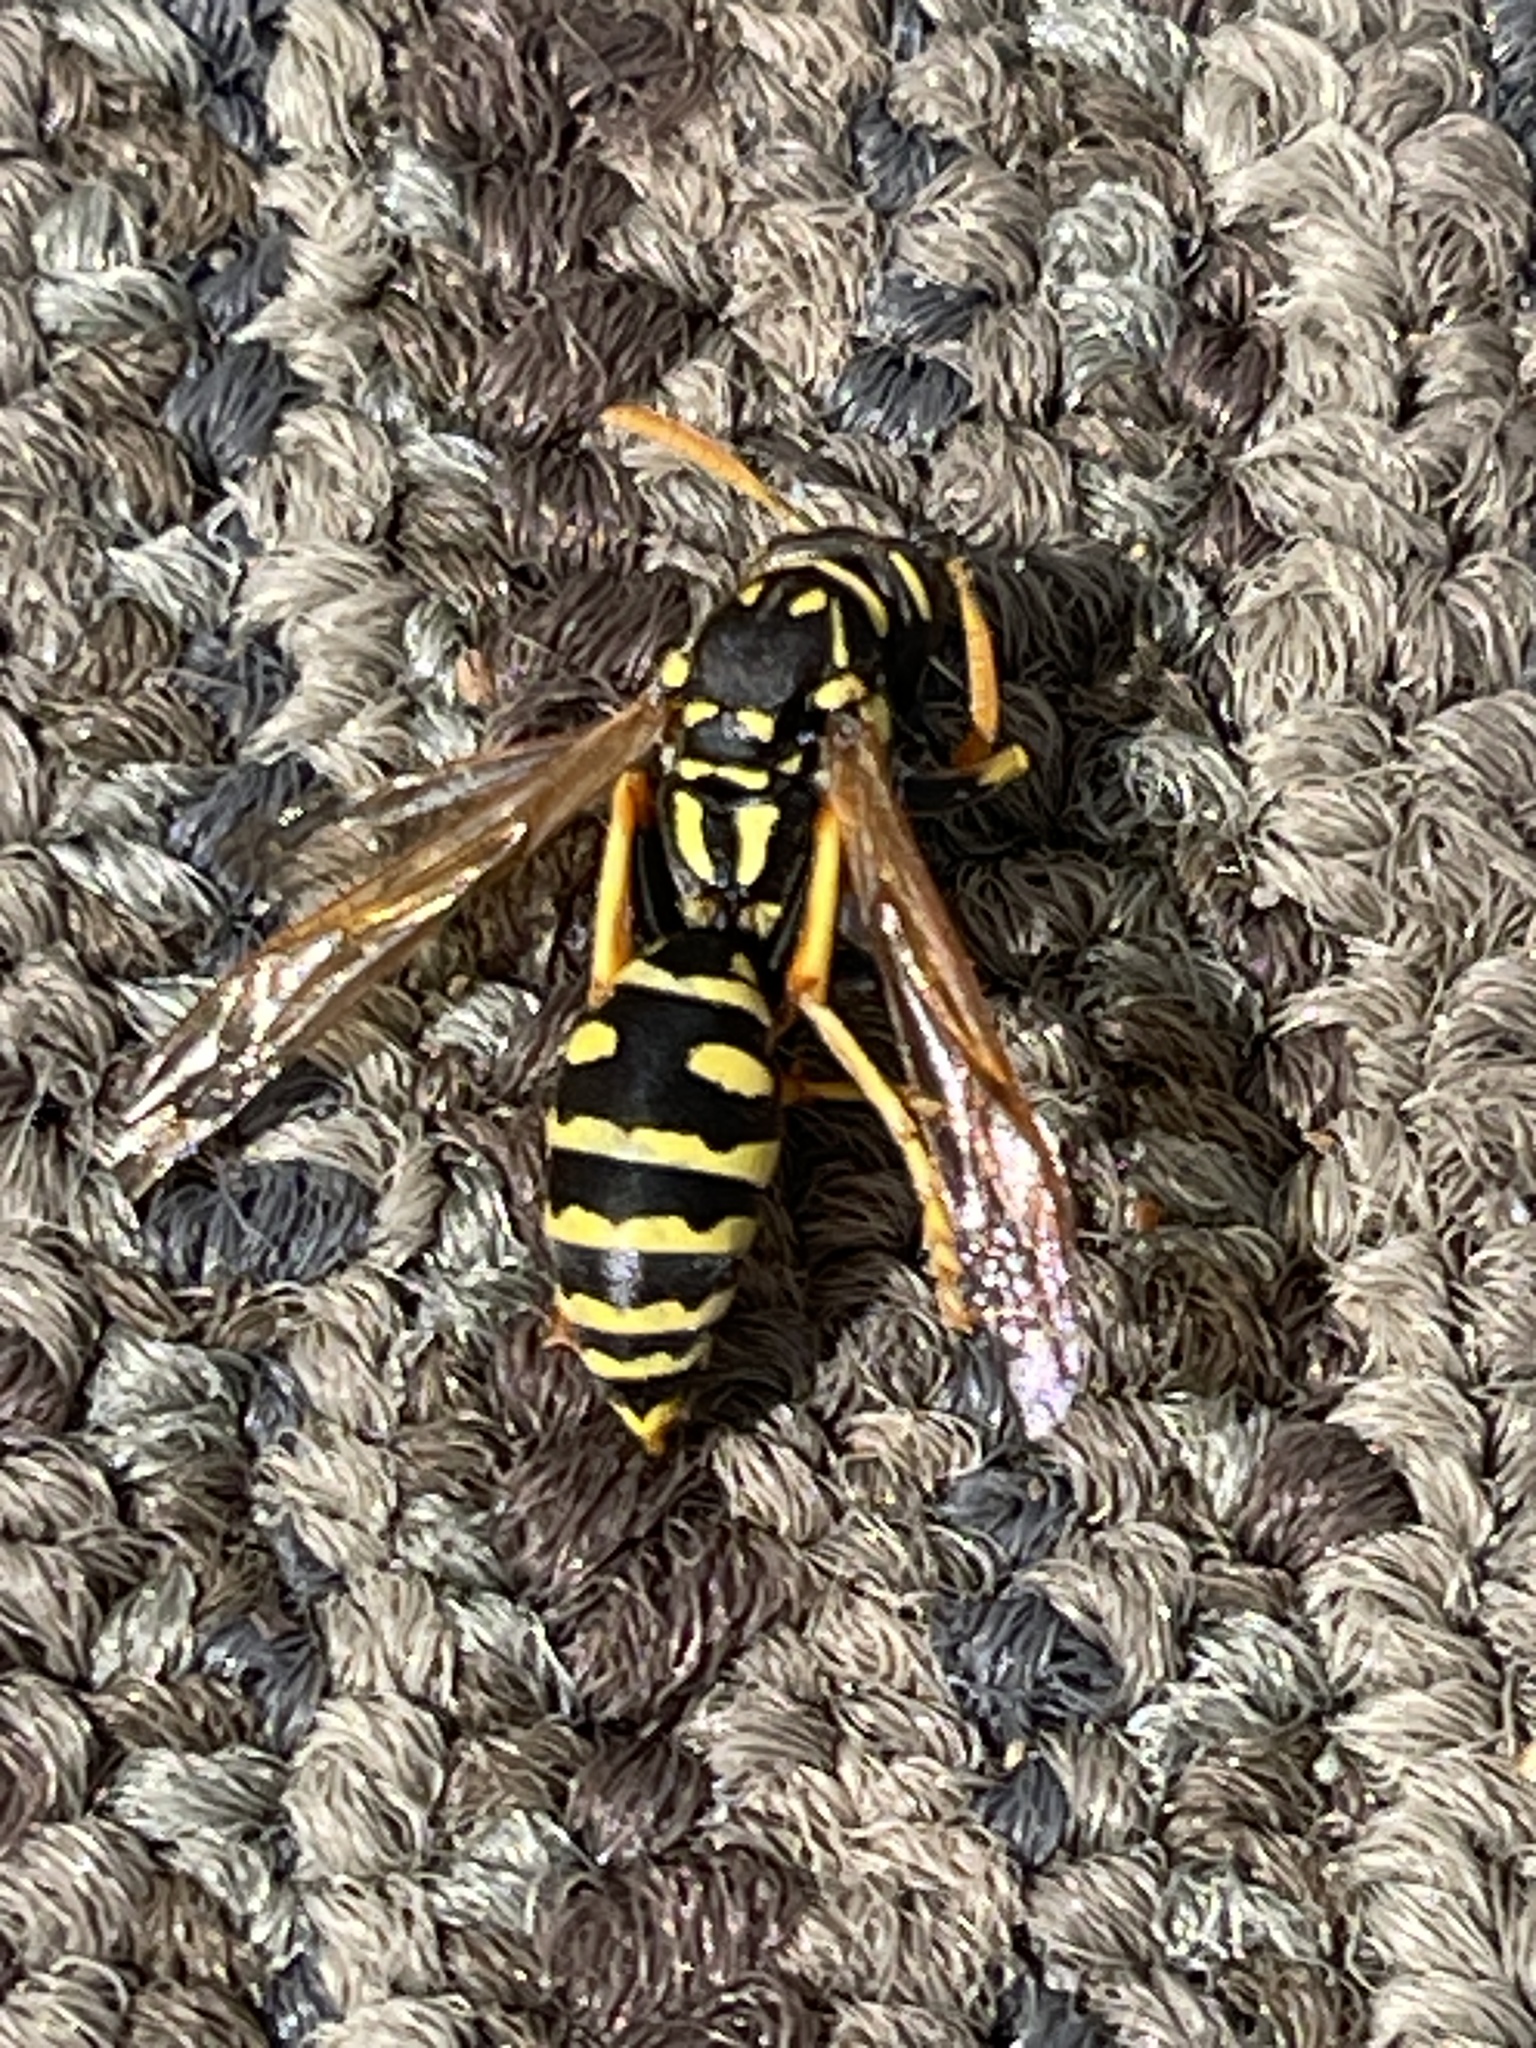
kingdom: Animalia
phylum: Arthropoda
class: Insecta
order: Hymenoptera
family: Eumenidae
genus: Polistes
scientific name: Polistes dominula
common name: Paper wasp
